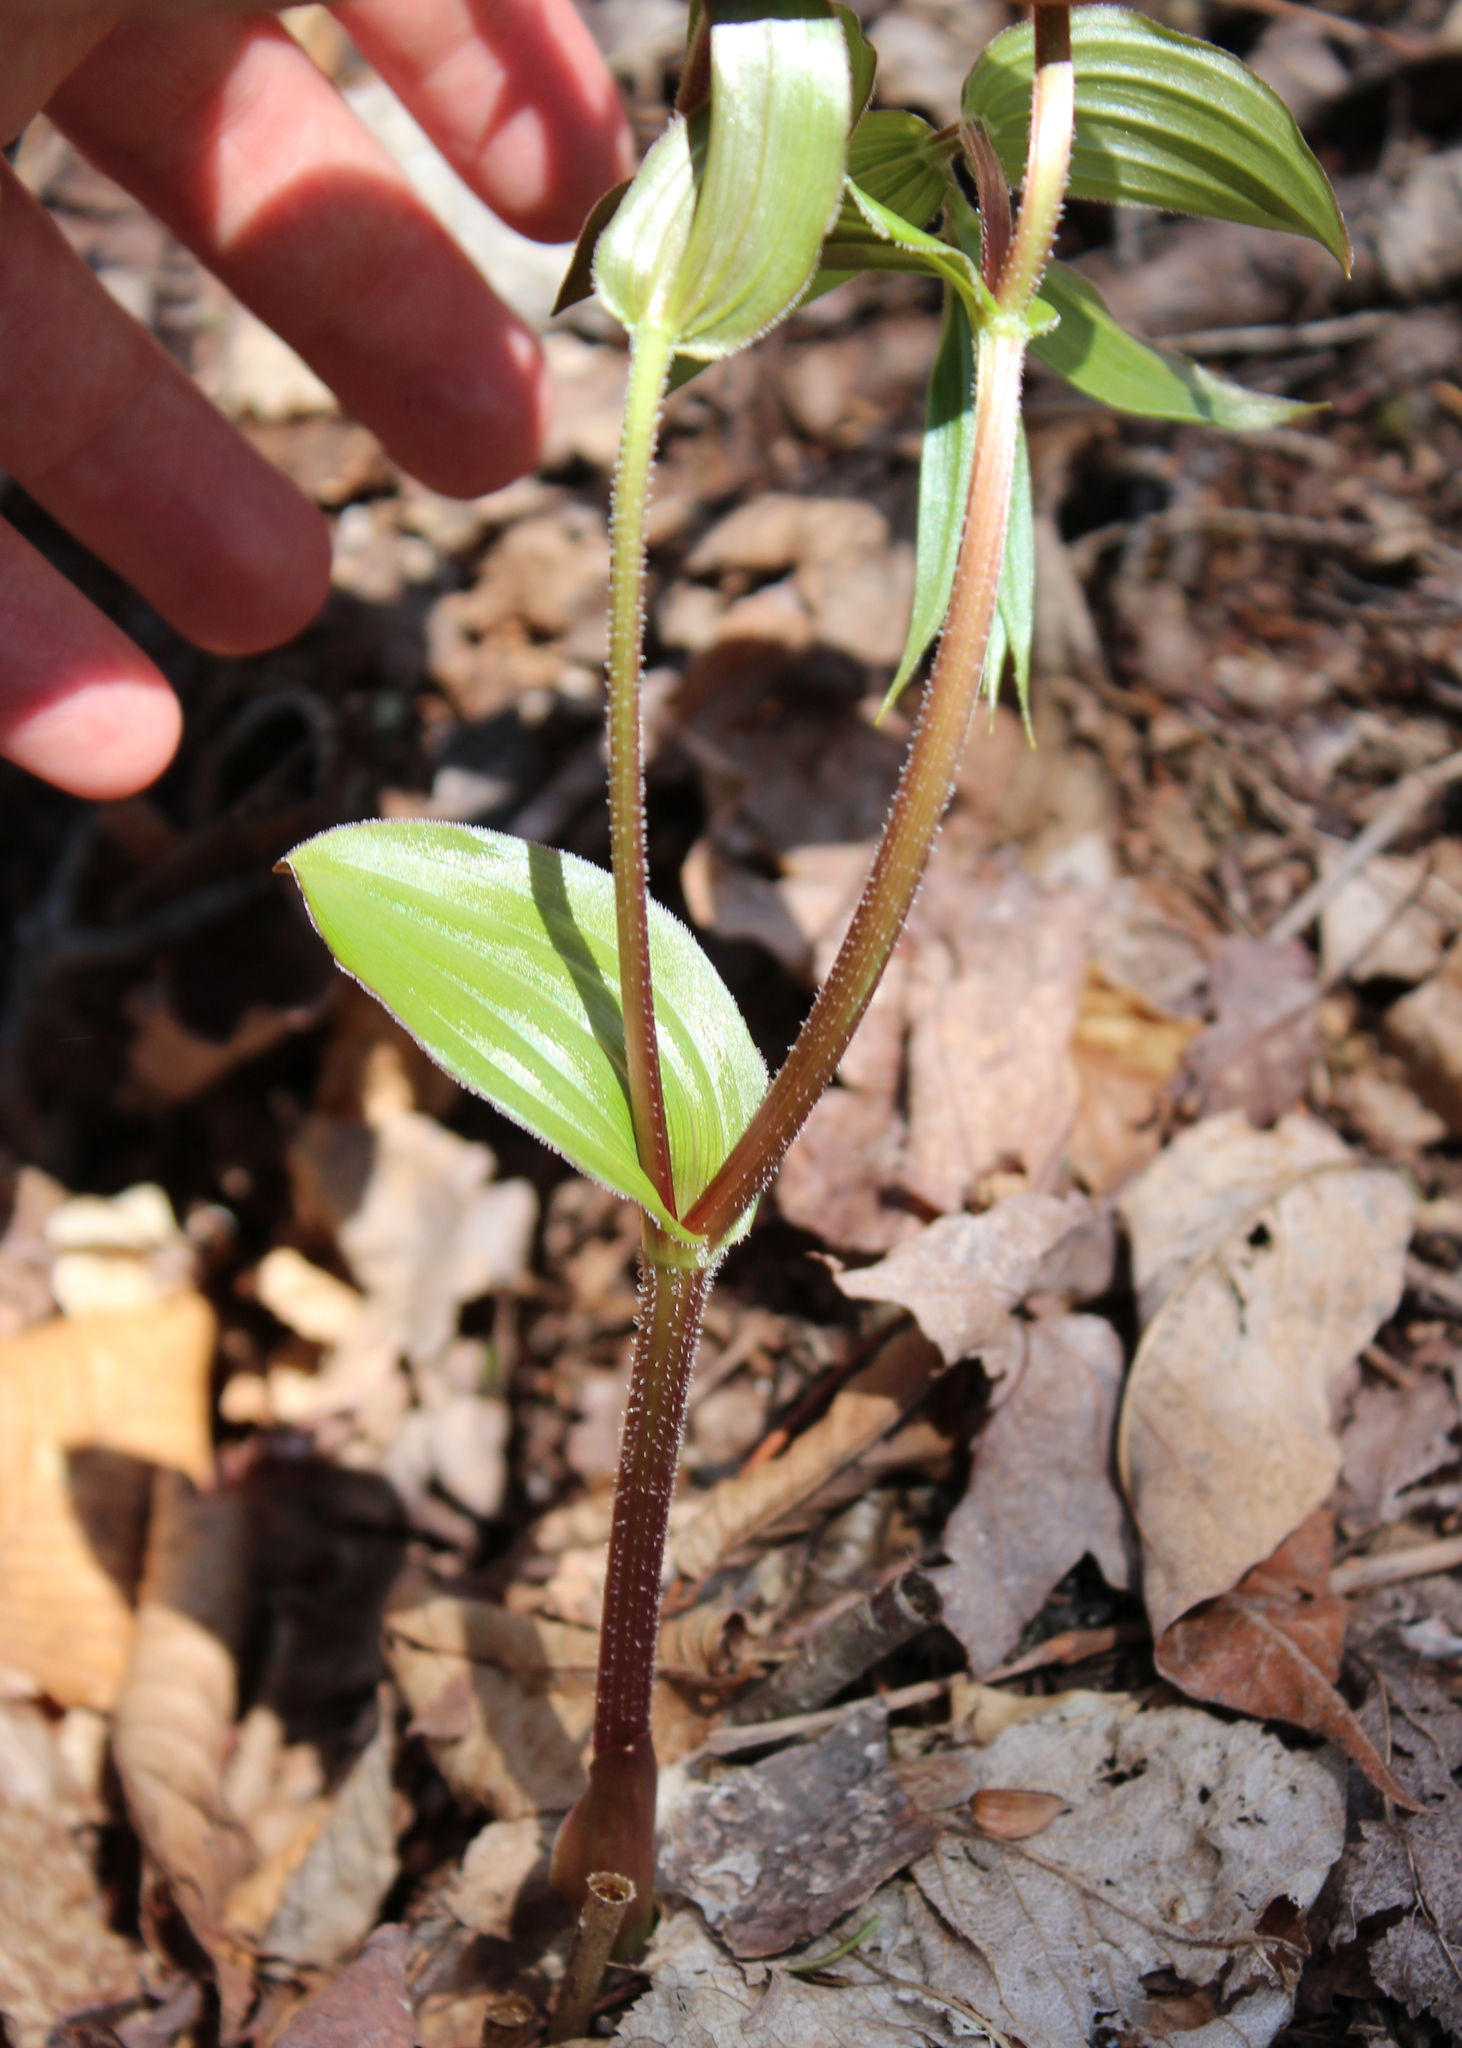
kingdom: Plantae
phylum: Tracheophyta
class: Liliopsida
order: Liliales
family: Liliaceae
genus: Streptopus
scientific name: Streptopus lanceolatus
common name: Rose mandarin
